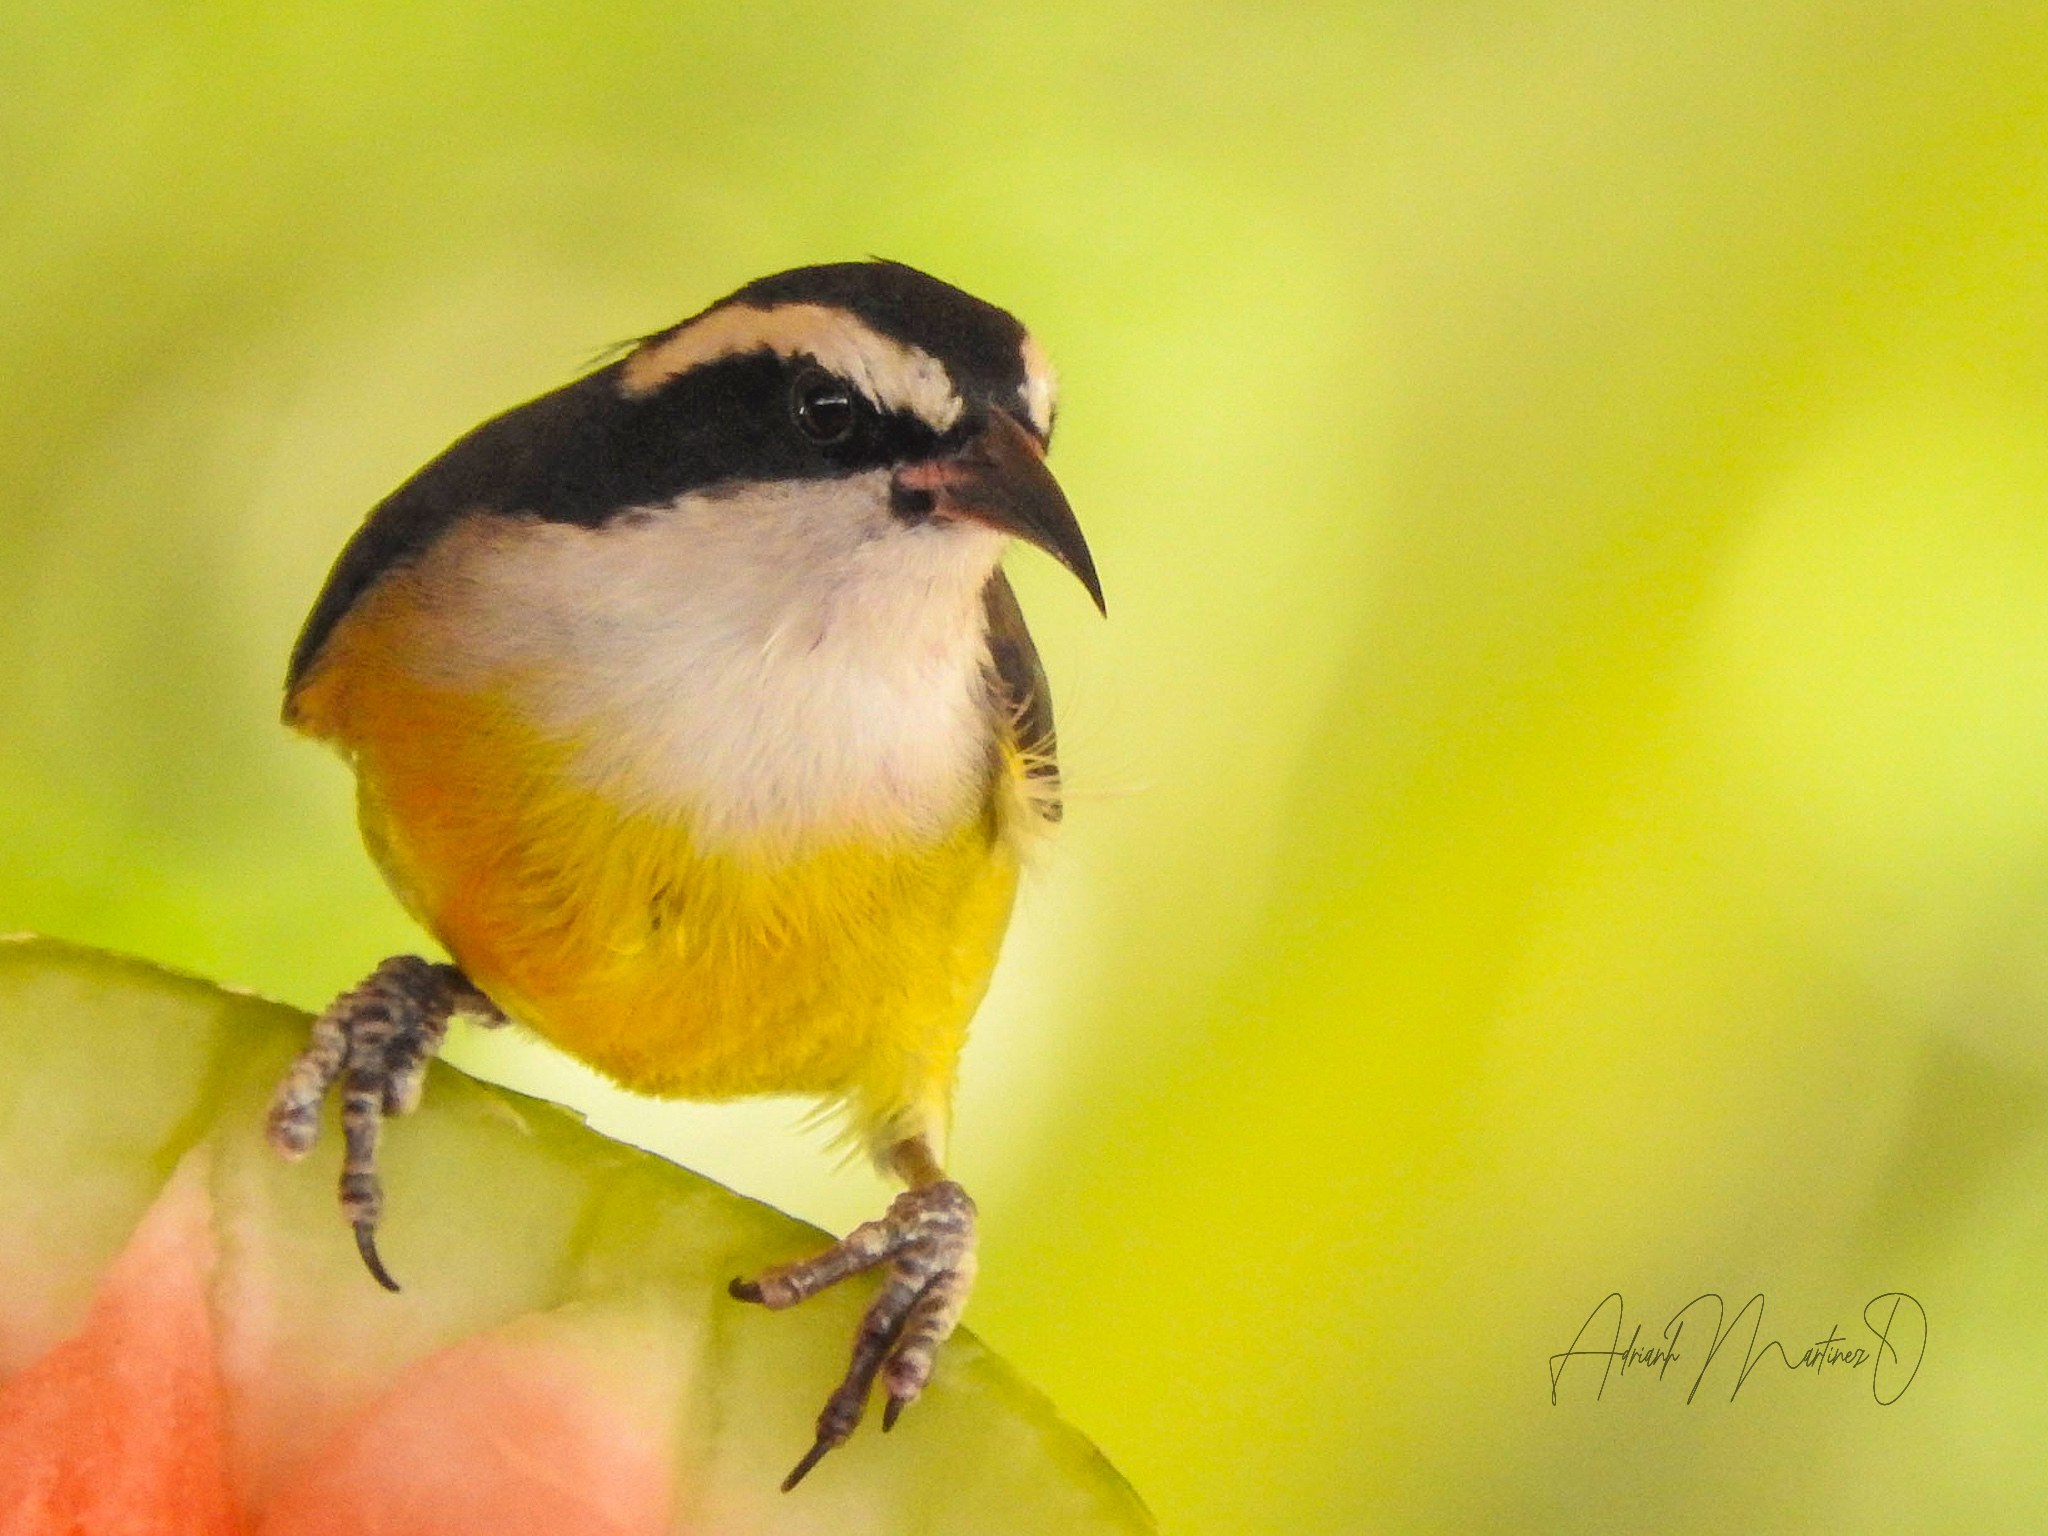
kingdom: Animalia
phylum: Chordata
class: Aves
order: Passeriformes
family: Thraupidae
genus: Coereba
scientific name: Coereba flaveola
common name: Bananaquit
